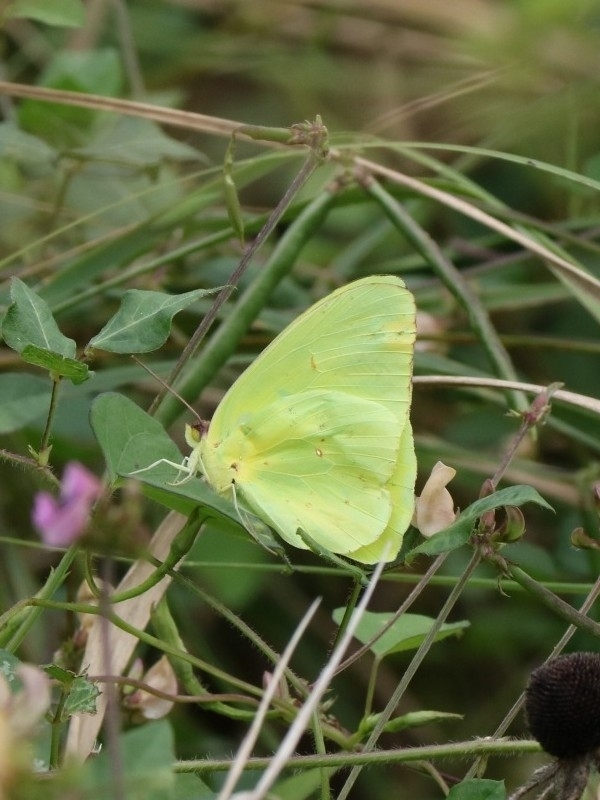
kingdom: Animalia
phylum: Arthropoda
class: Insecta
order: Lepidoptera
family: Pieridae
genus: Phoebis
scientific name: Phoebis sennae
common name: Cloudless sulphur
